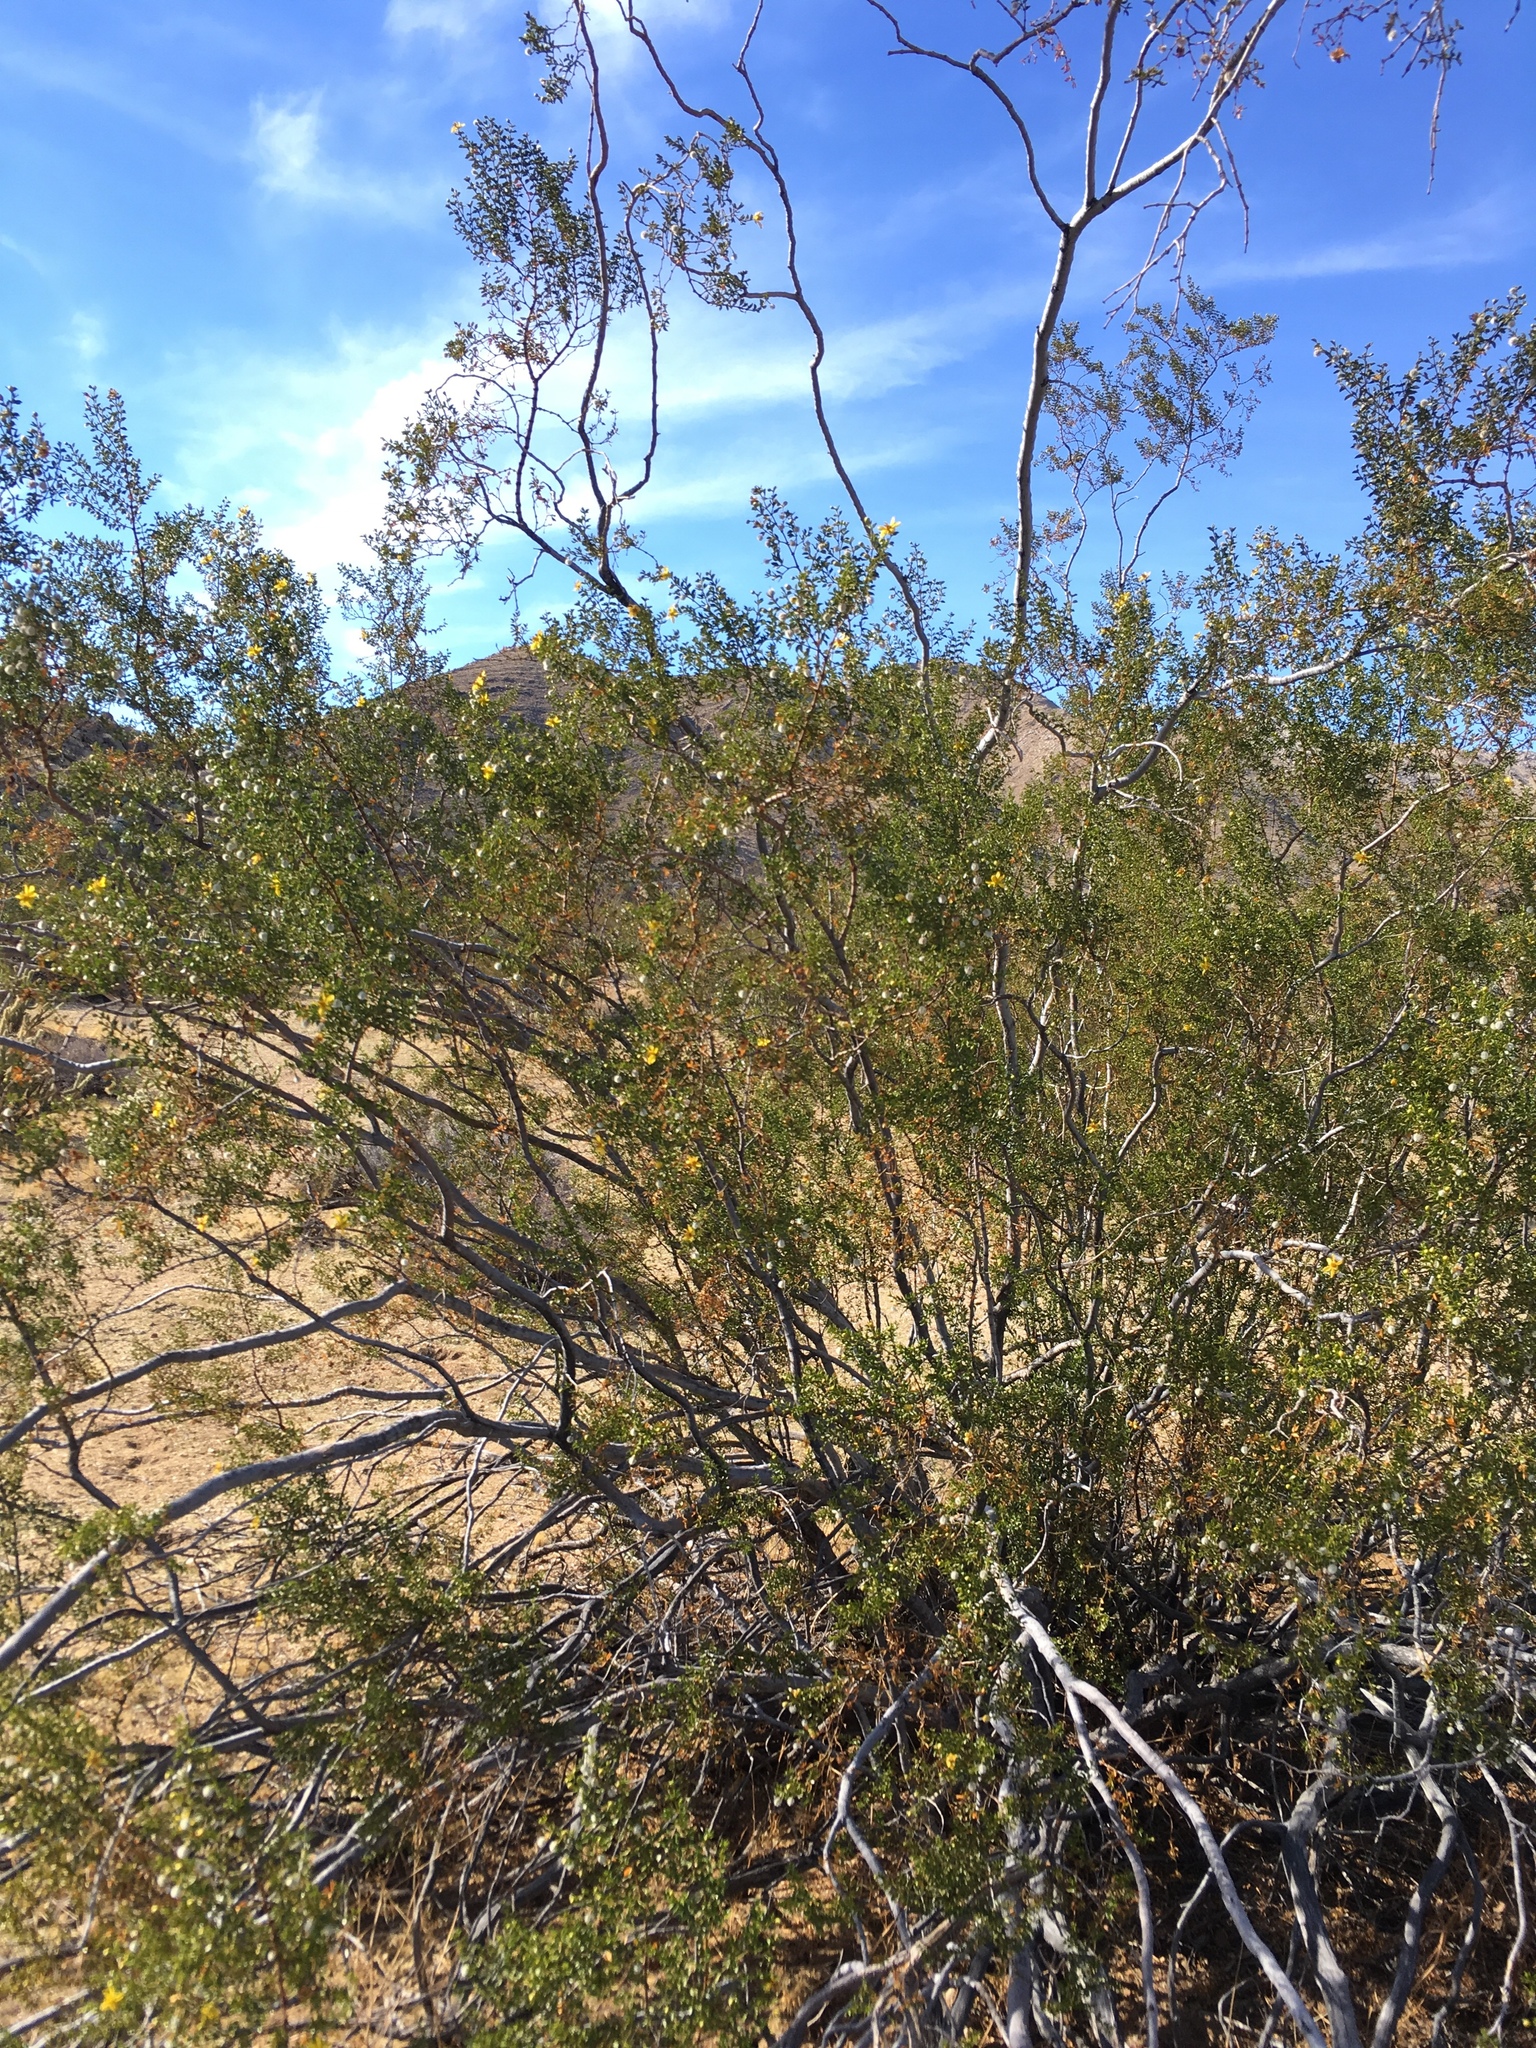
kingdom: Plantae
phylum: Tracheophyta
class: Magnoliopsida
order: Zygophyllales
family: Zygophyllaceae
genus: Larrea
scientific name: Larrea tridentata
